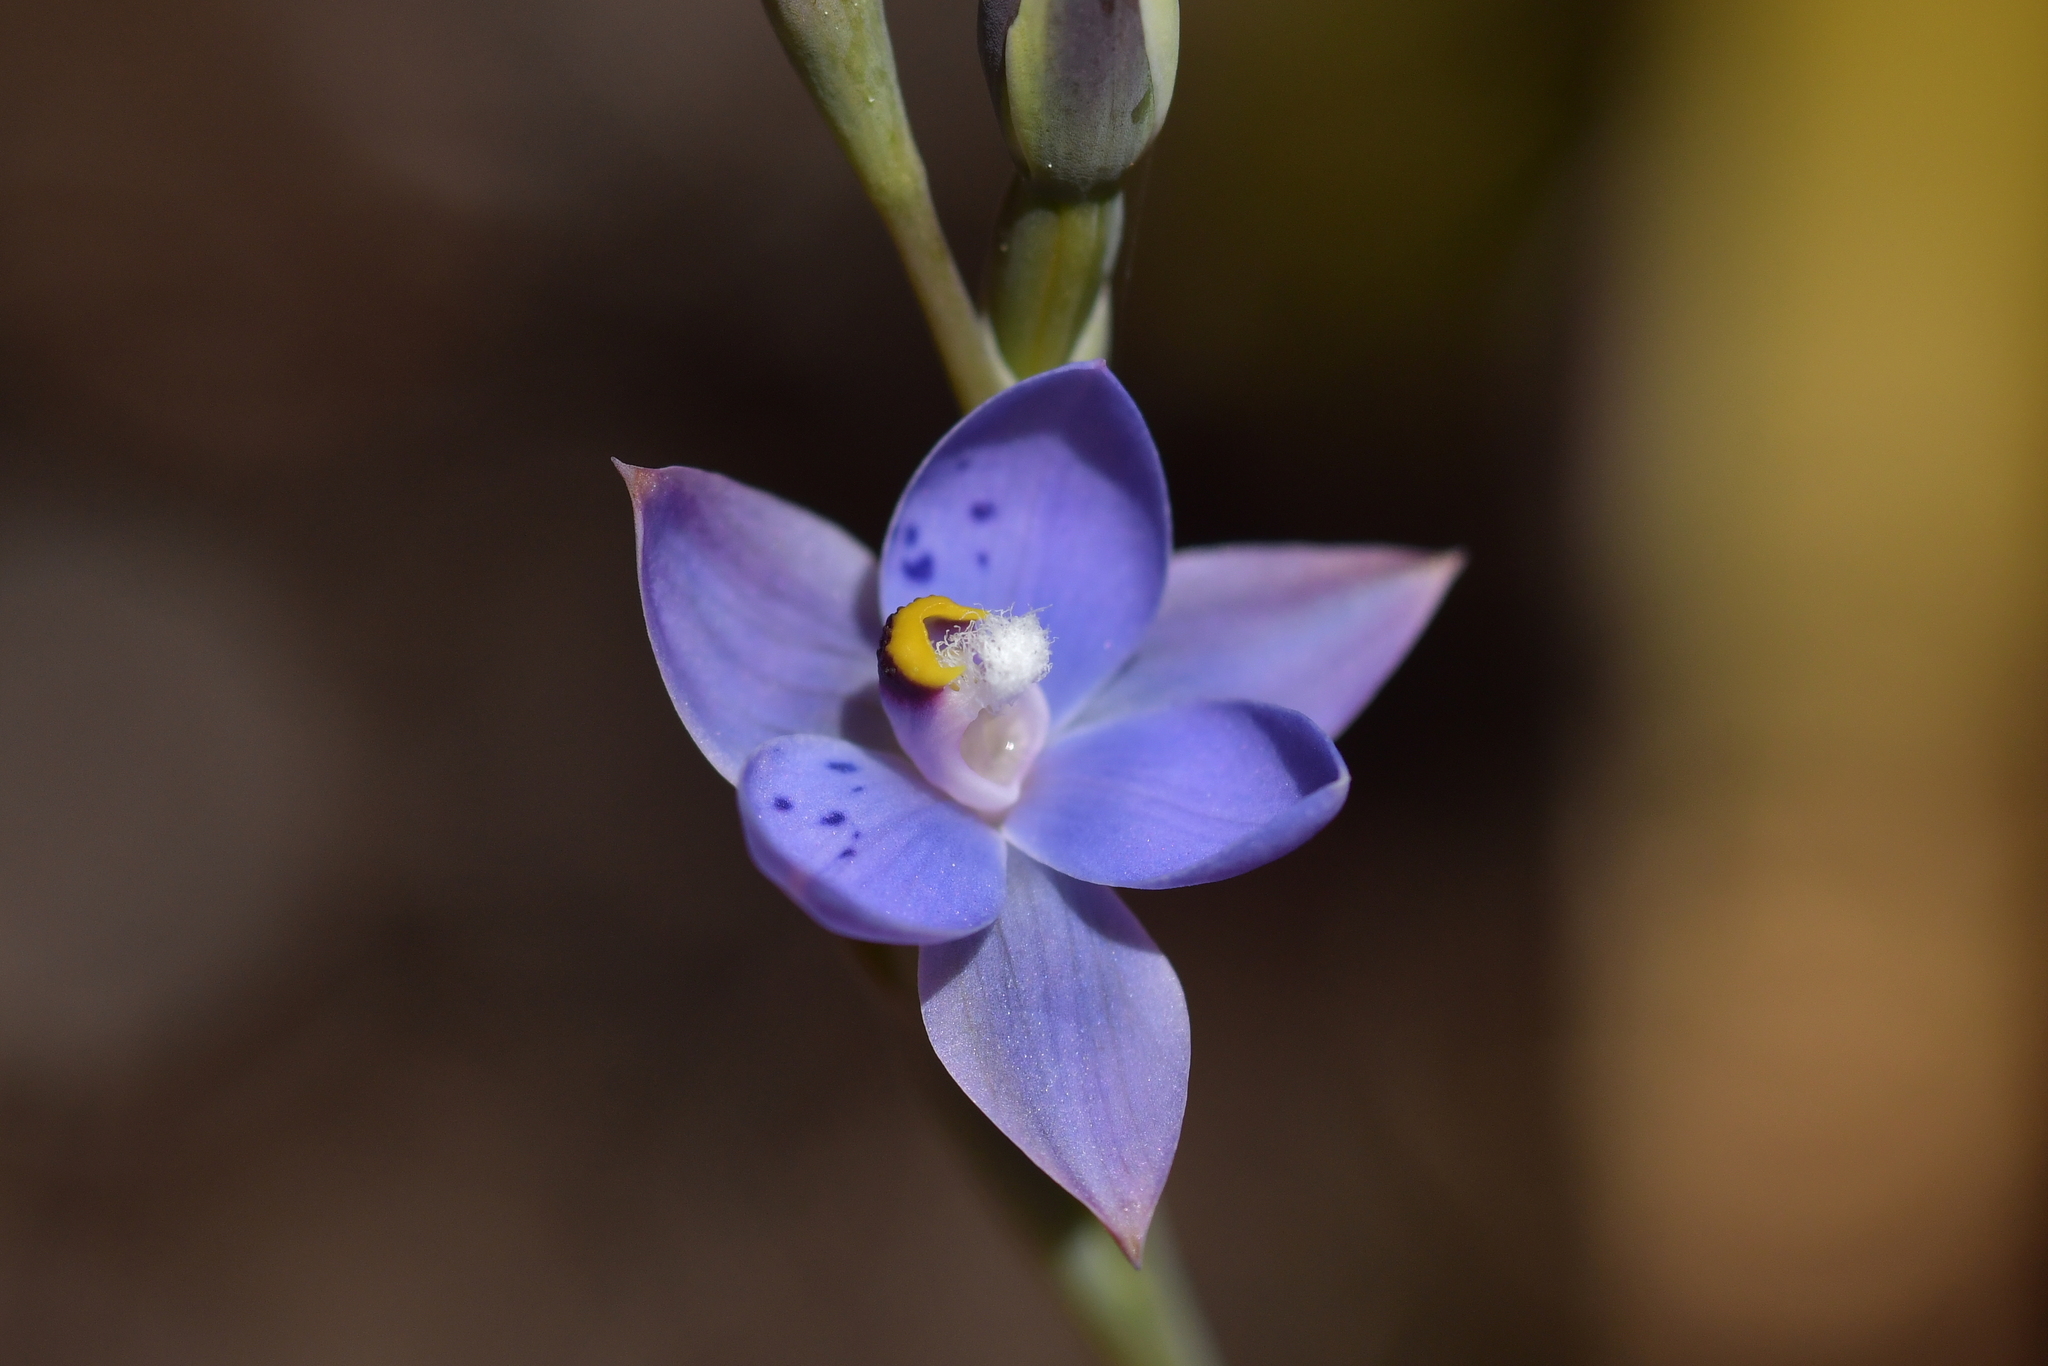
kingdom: Plantae
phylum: Tracheophyta
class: Liliopsida
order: Asparagales
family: Orchidaceae
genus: Thelymitra
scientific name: Thelymitra nervosa
